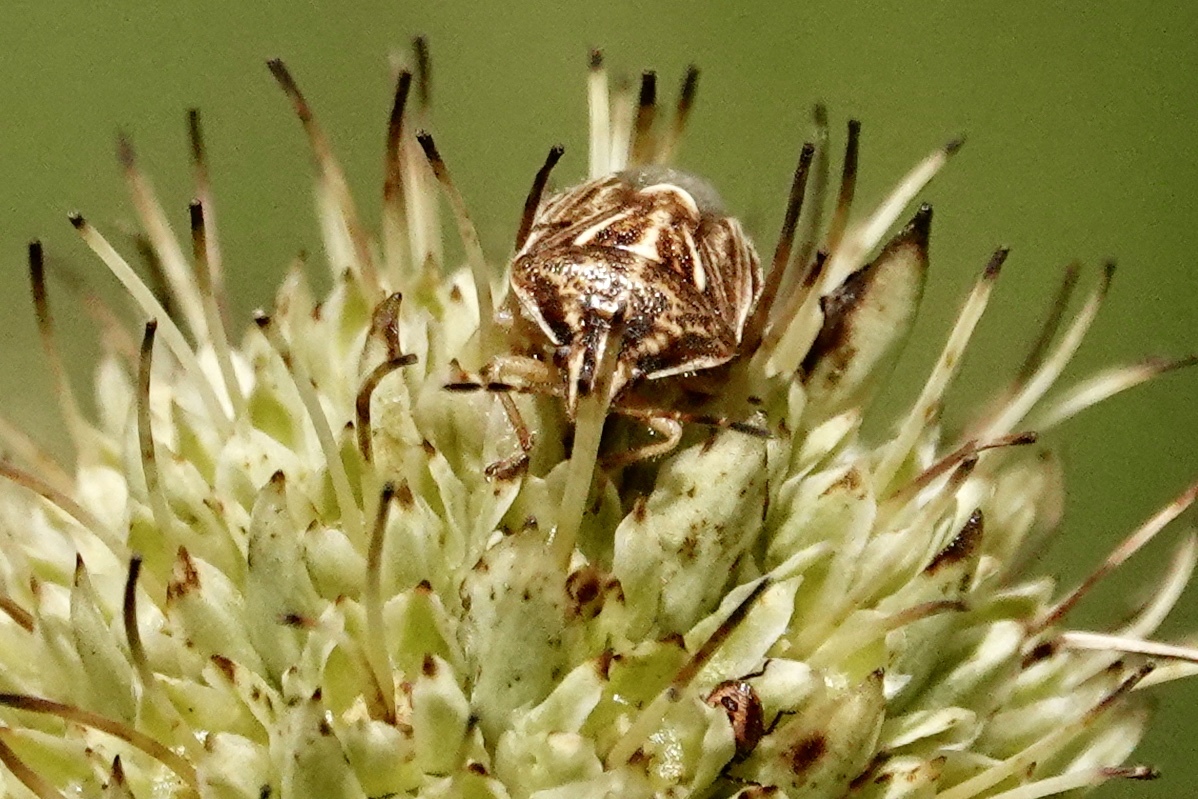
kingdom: Animalia
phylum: Arthropoda
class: Insecta
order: Hemiptera
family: Pentatomidae
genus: Trichopepla
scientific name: Trichopepla semivittata
